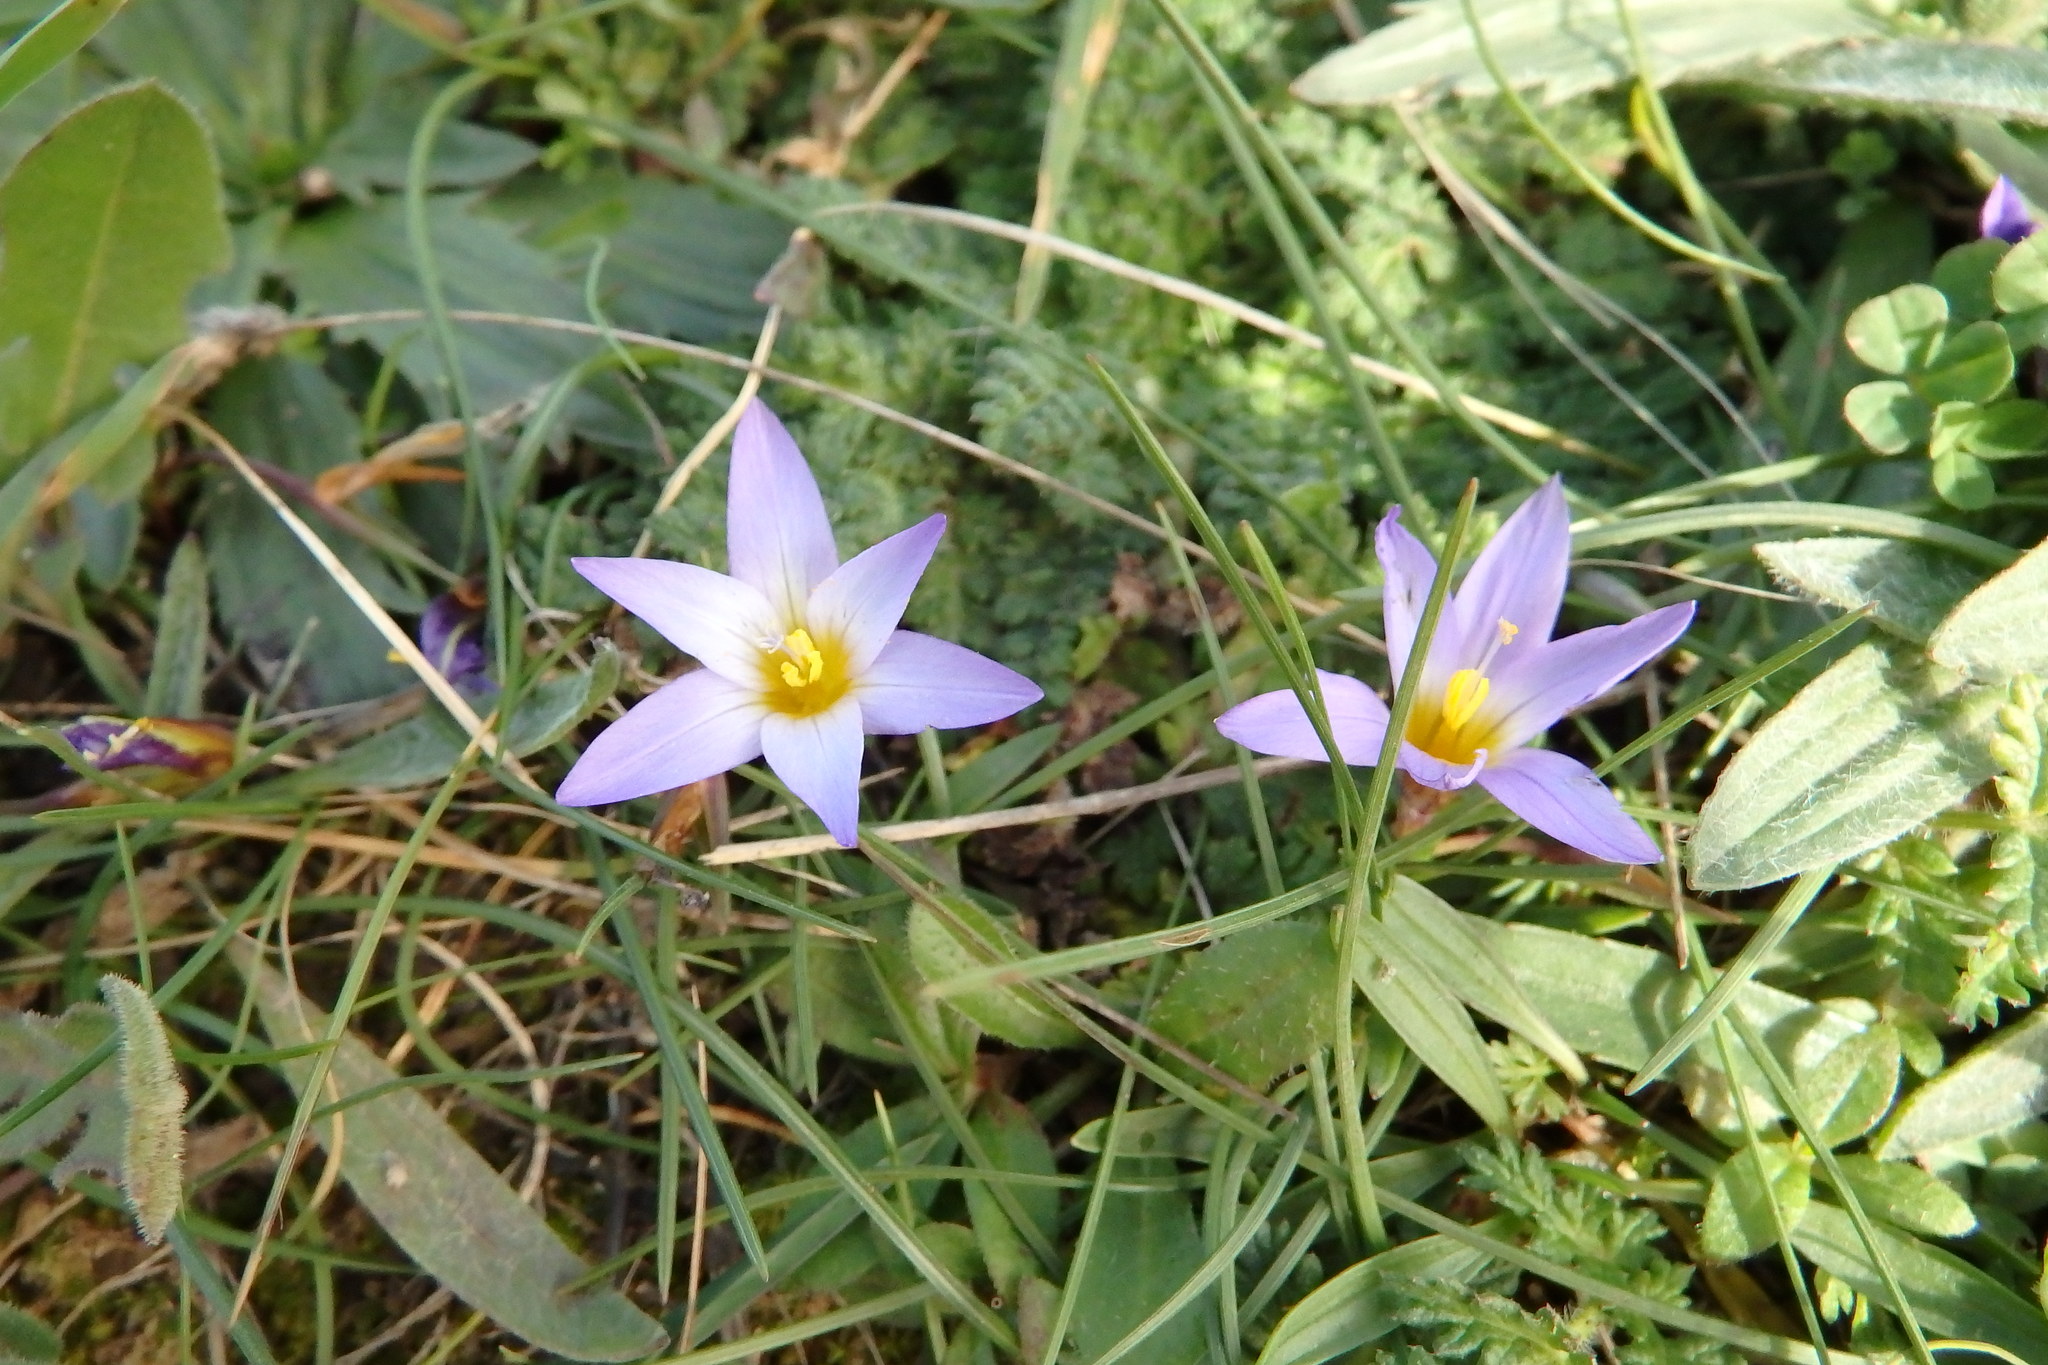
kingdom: Plantae
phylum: Tracheophyta
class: Liliopsida
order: Asparagales
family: Iridaceae
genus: Romulea
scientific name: Romulea bulbocodium
